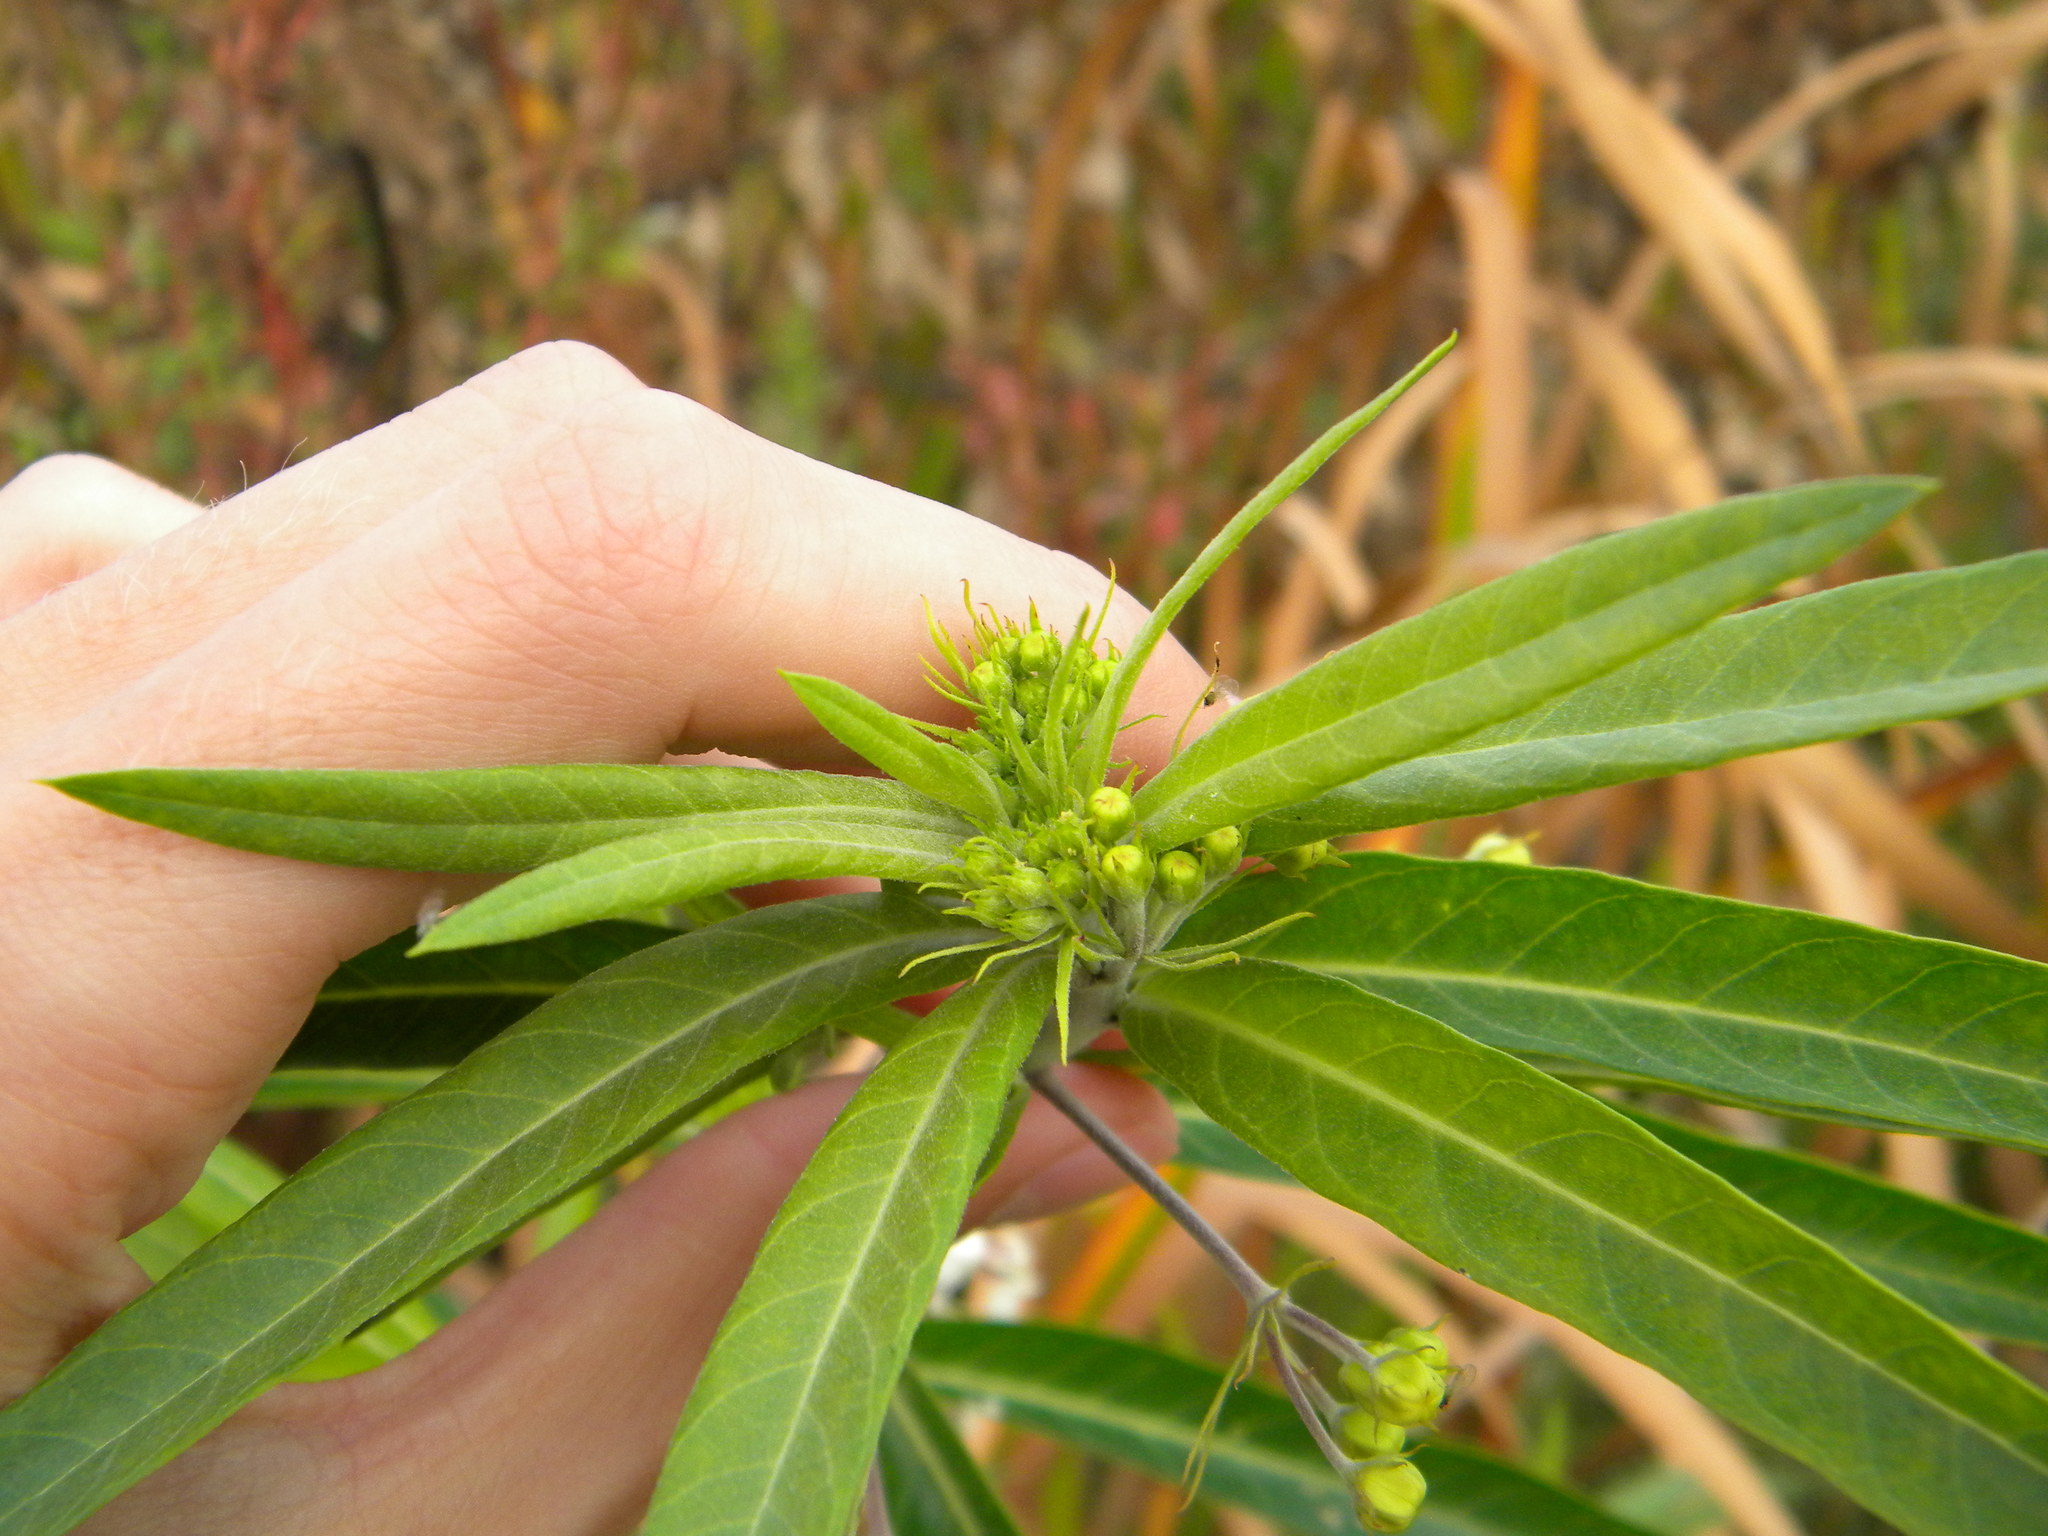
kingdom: Plantae
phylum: Tracheophyta
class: Magnoliopsida
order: Gentianales
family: Apocynaceae
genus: Gomphocarpus
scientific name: Gomphocarpus physocarpus
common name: Balloon cotton bush
